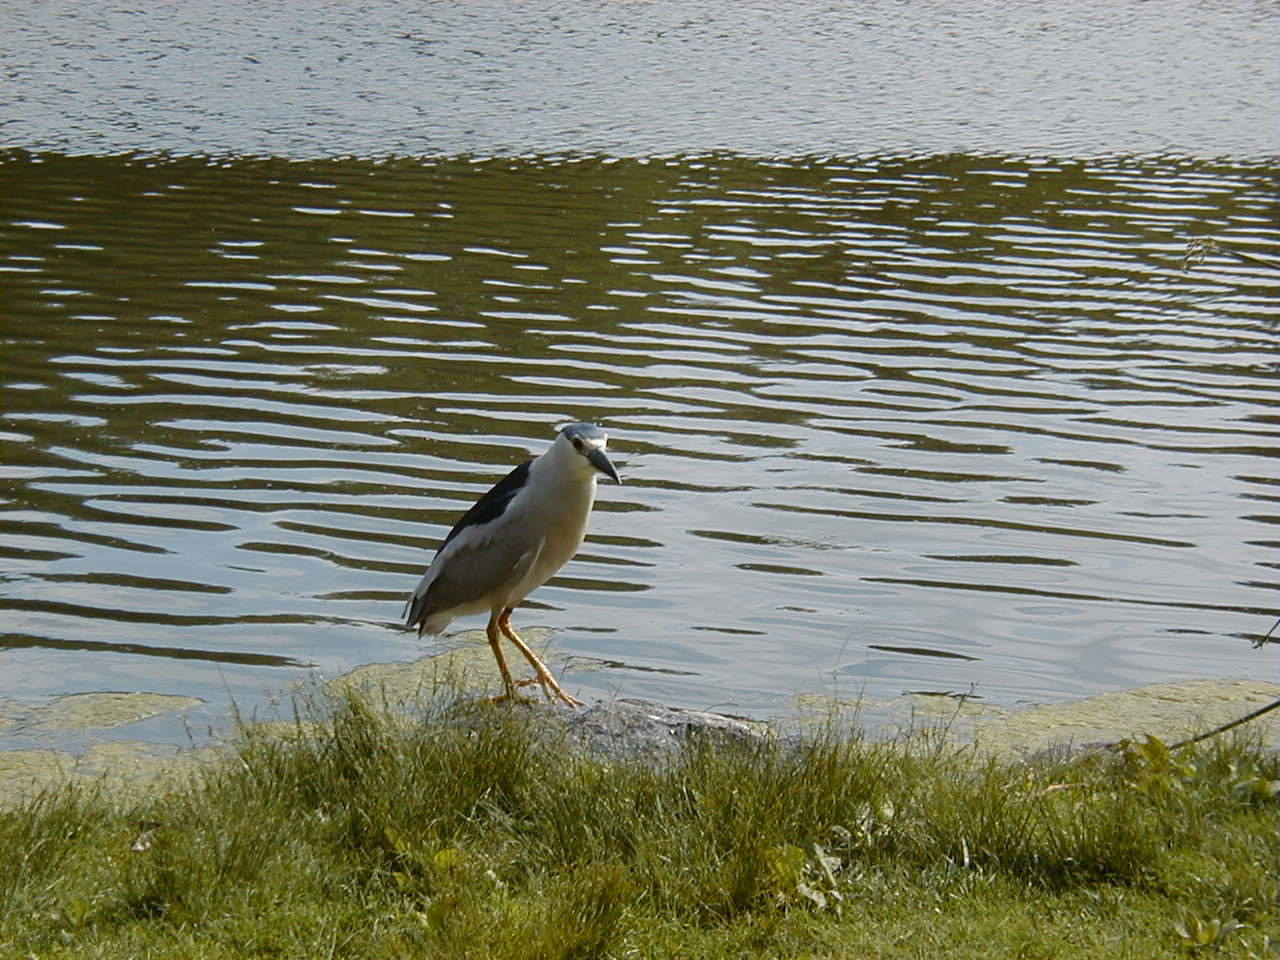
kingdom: Animalia
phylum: Chordata
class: Aves
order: Pelecaniformes
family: Ardeidae
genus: Nycticorax
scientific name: Nycticorax nycticorax
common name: Black-crowned night heron
